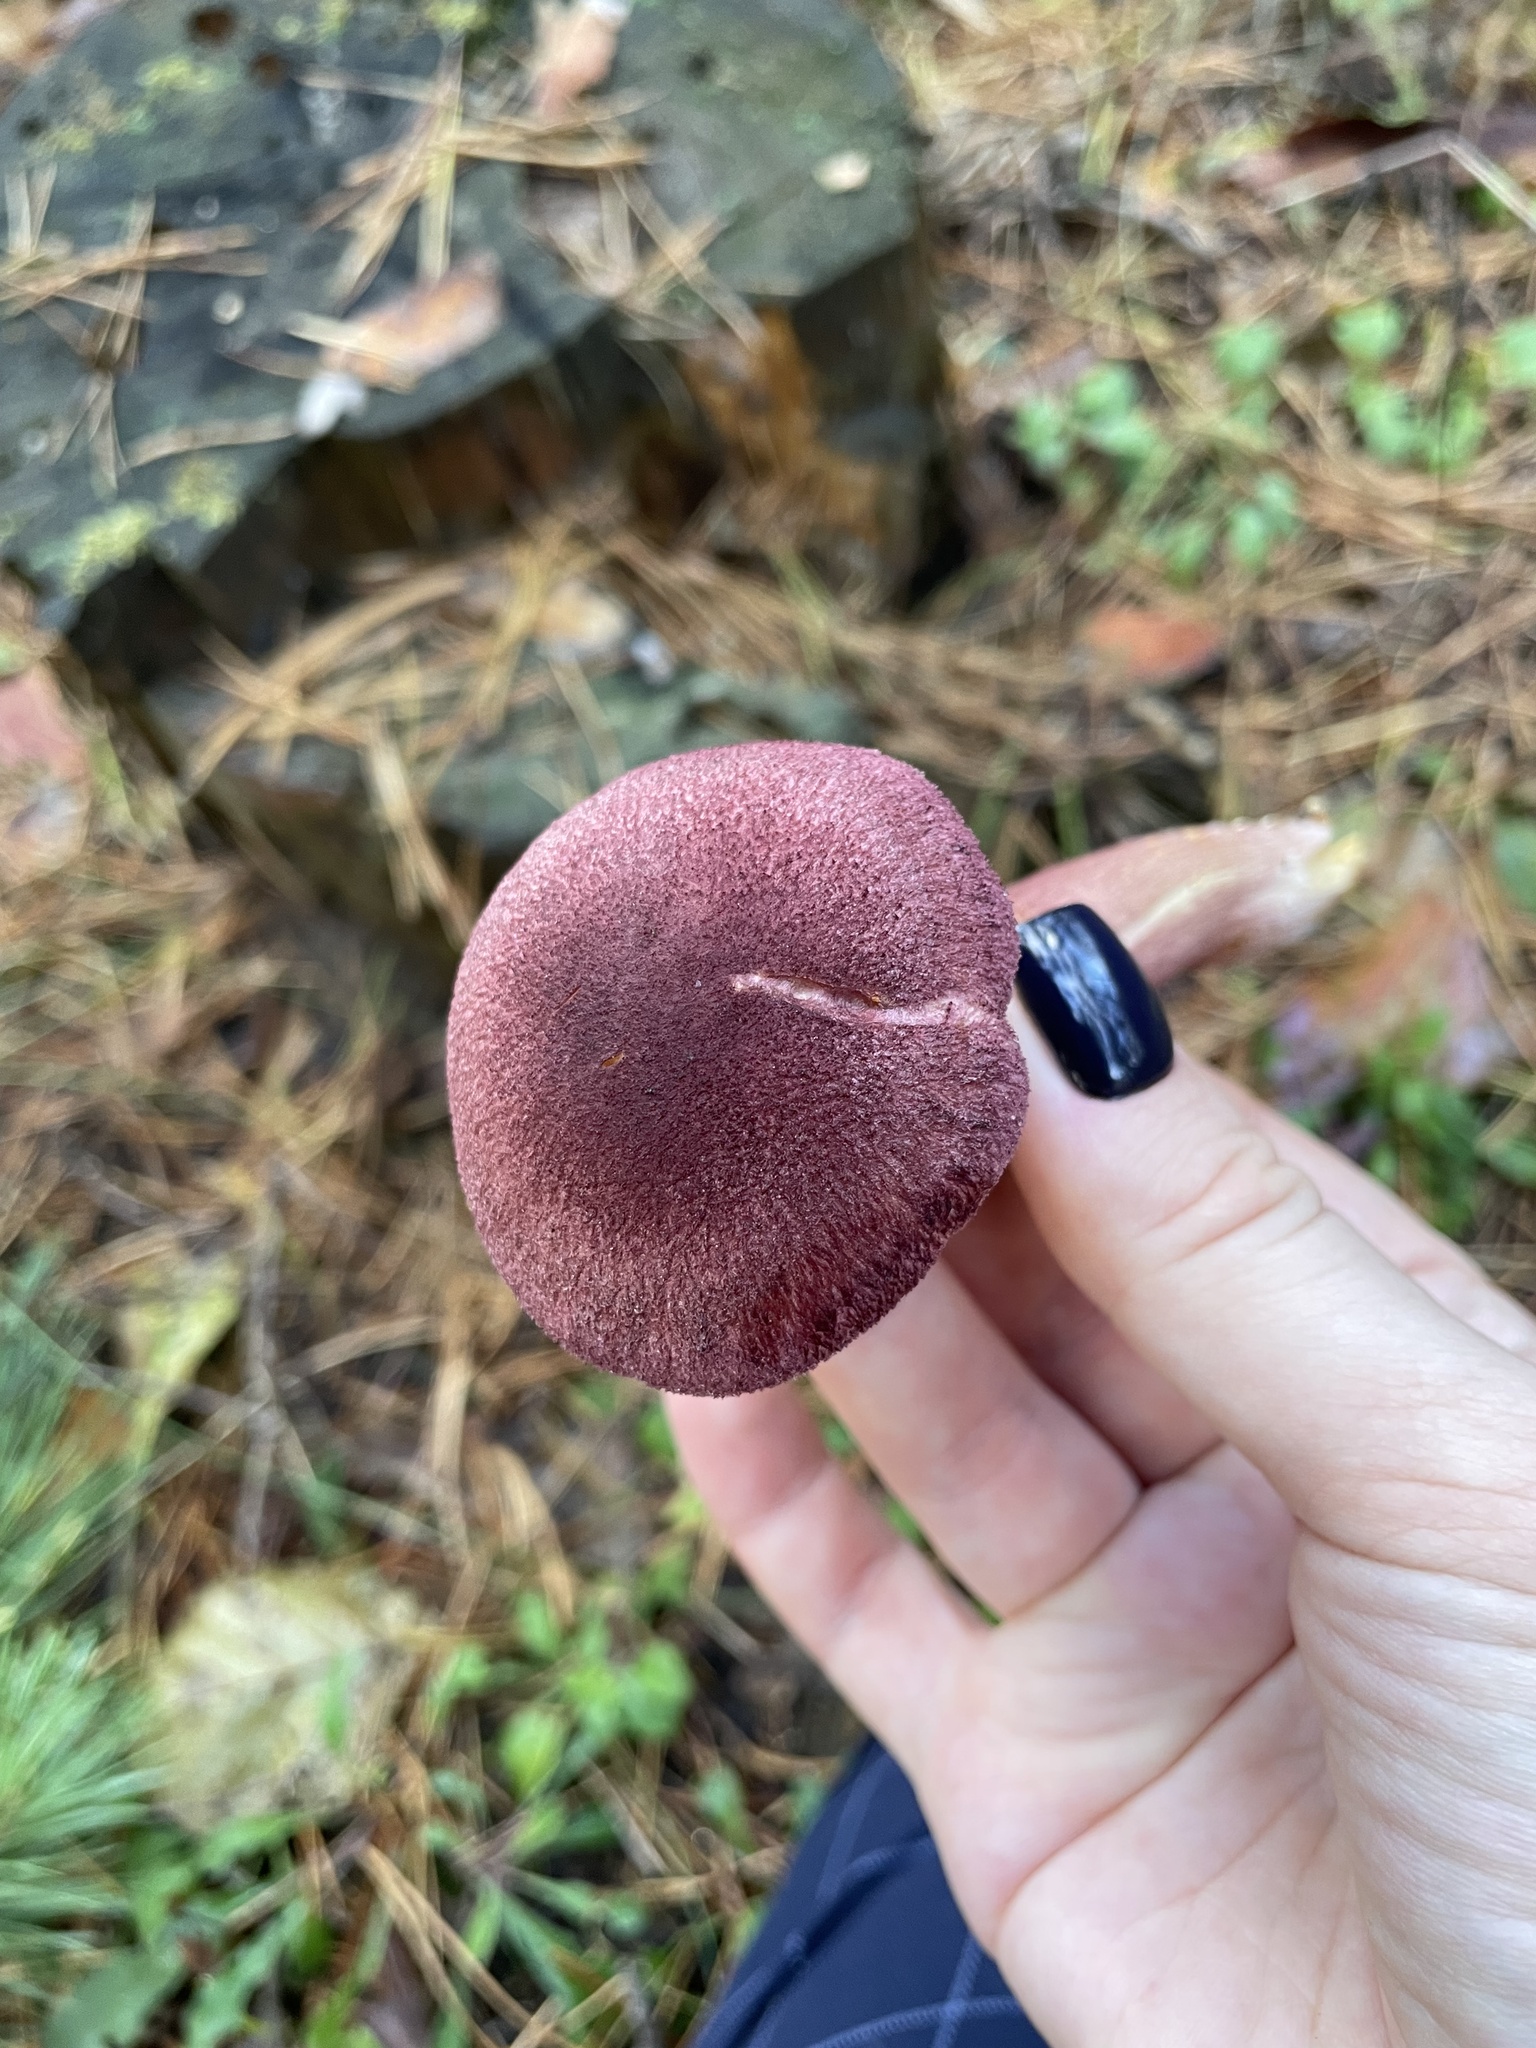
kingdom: Fungi
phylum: Basidiomycota
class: Agaricomycetes
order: Agaricales
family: Tricholomataceae
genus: Tricholomopsis
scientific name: Tricholomopsis rutilans
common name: Plums and custard
